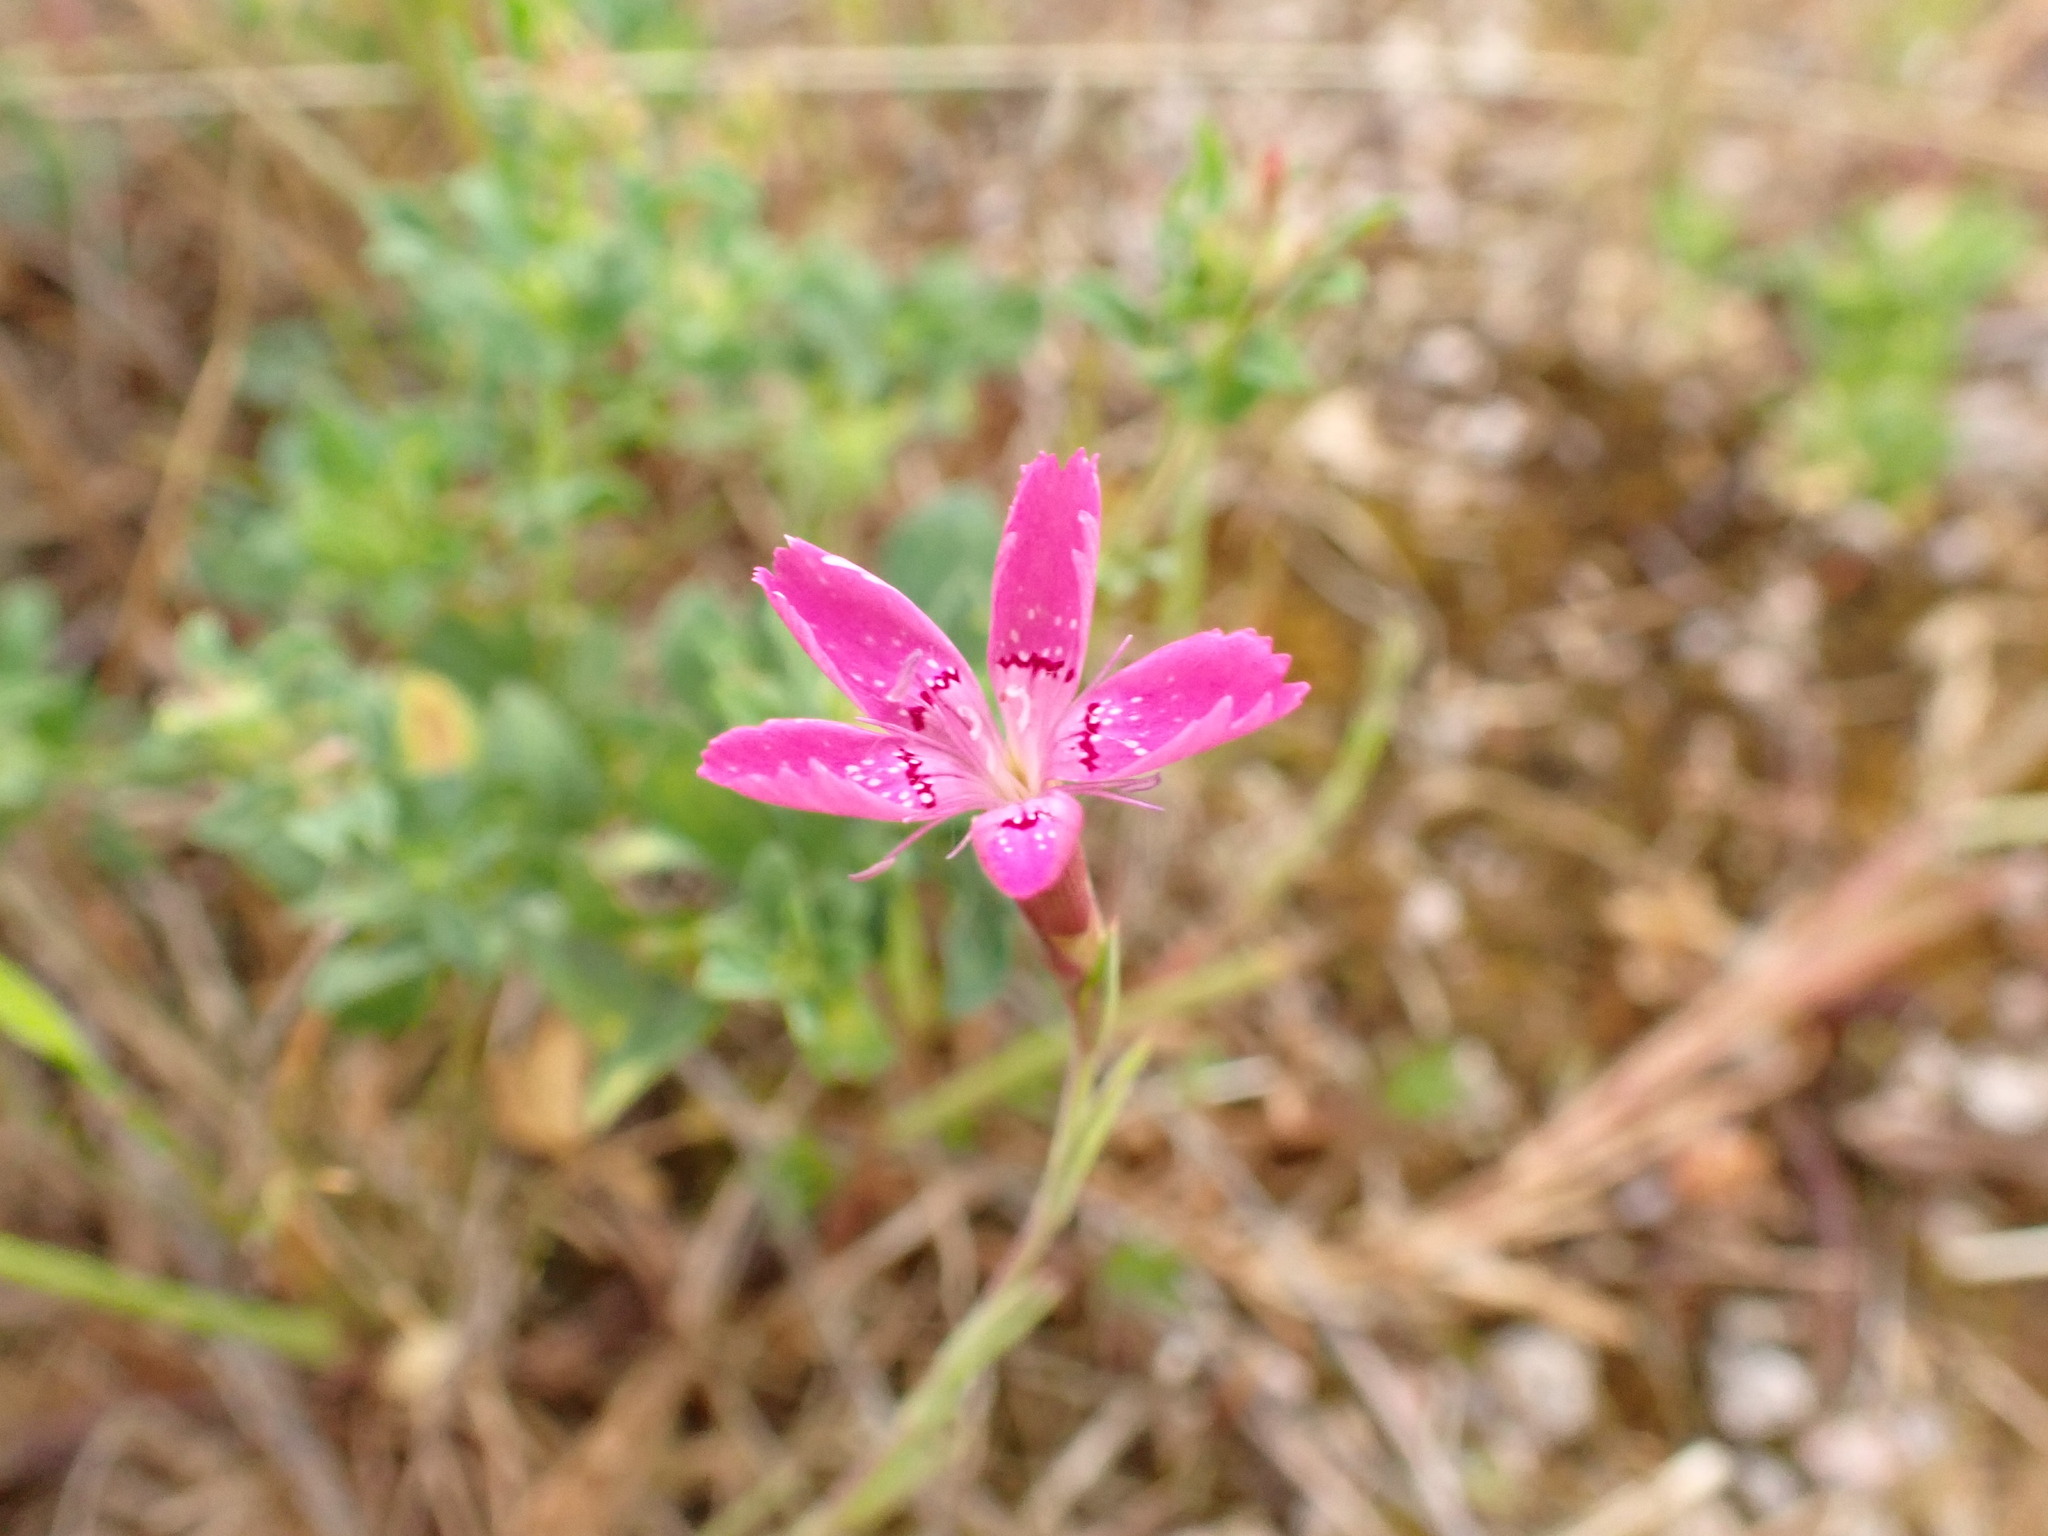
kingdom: Plantae
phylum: Tracheophyta
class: Magnoliopsida
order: Caryophyllales
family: Caryophyllaceae
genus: Dianthus
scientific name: Dianthus deltoides
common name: Maiden pink
